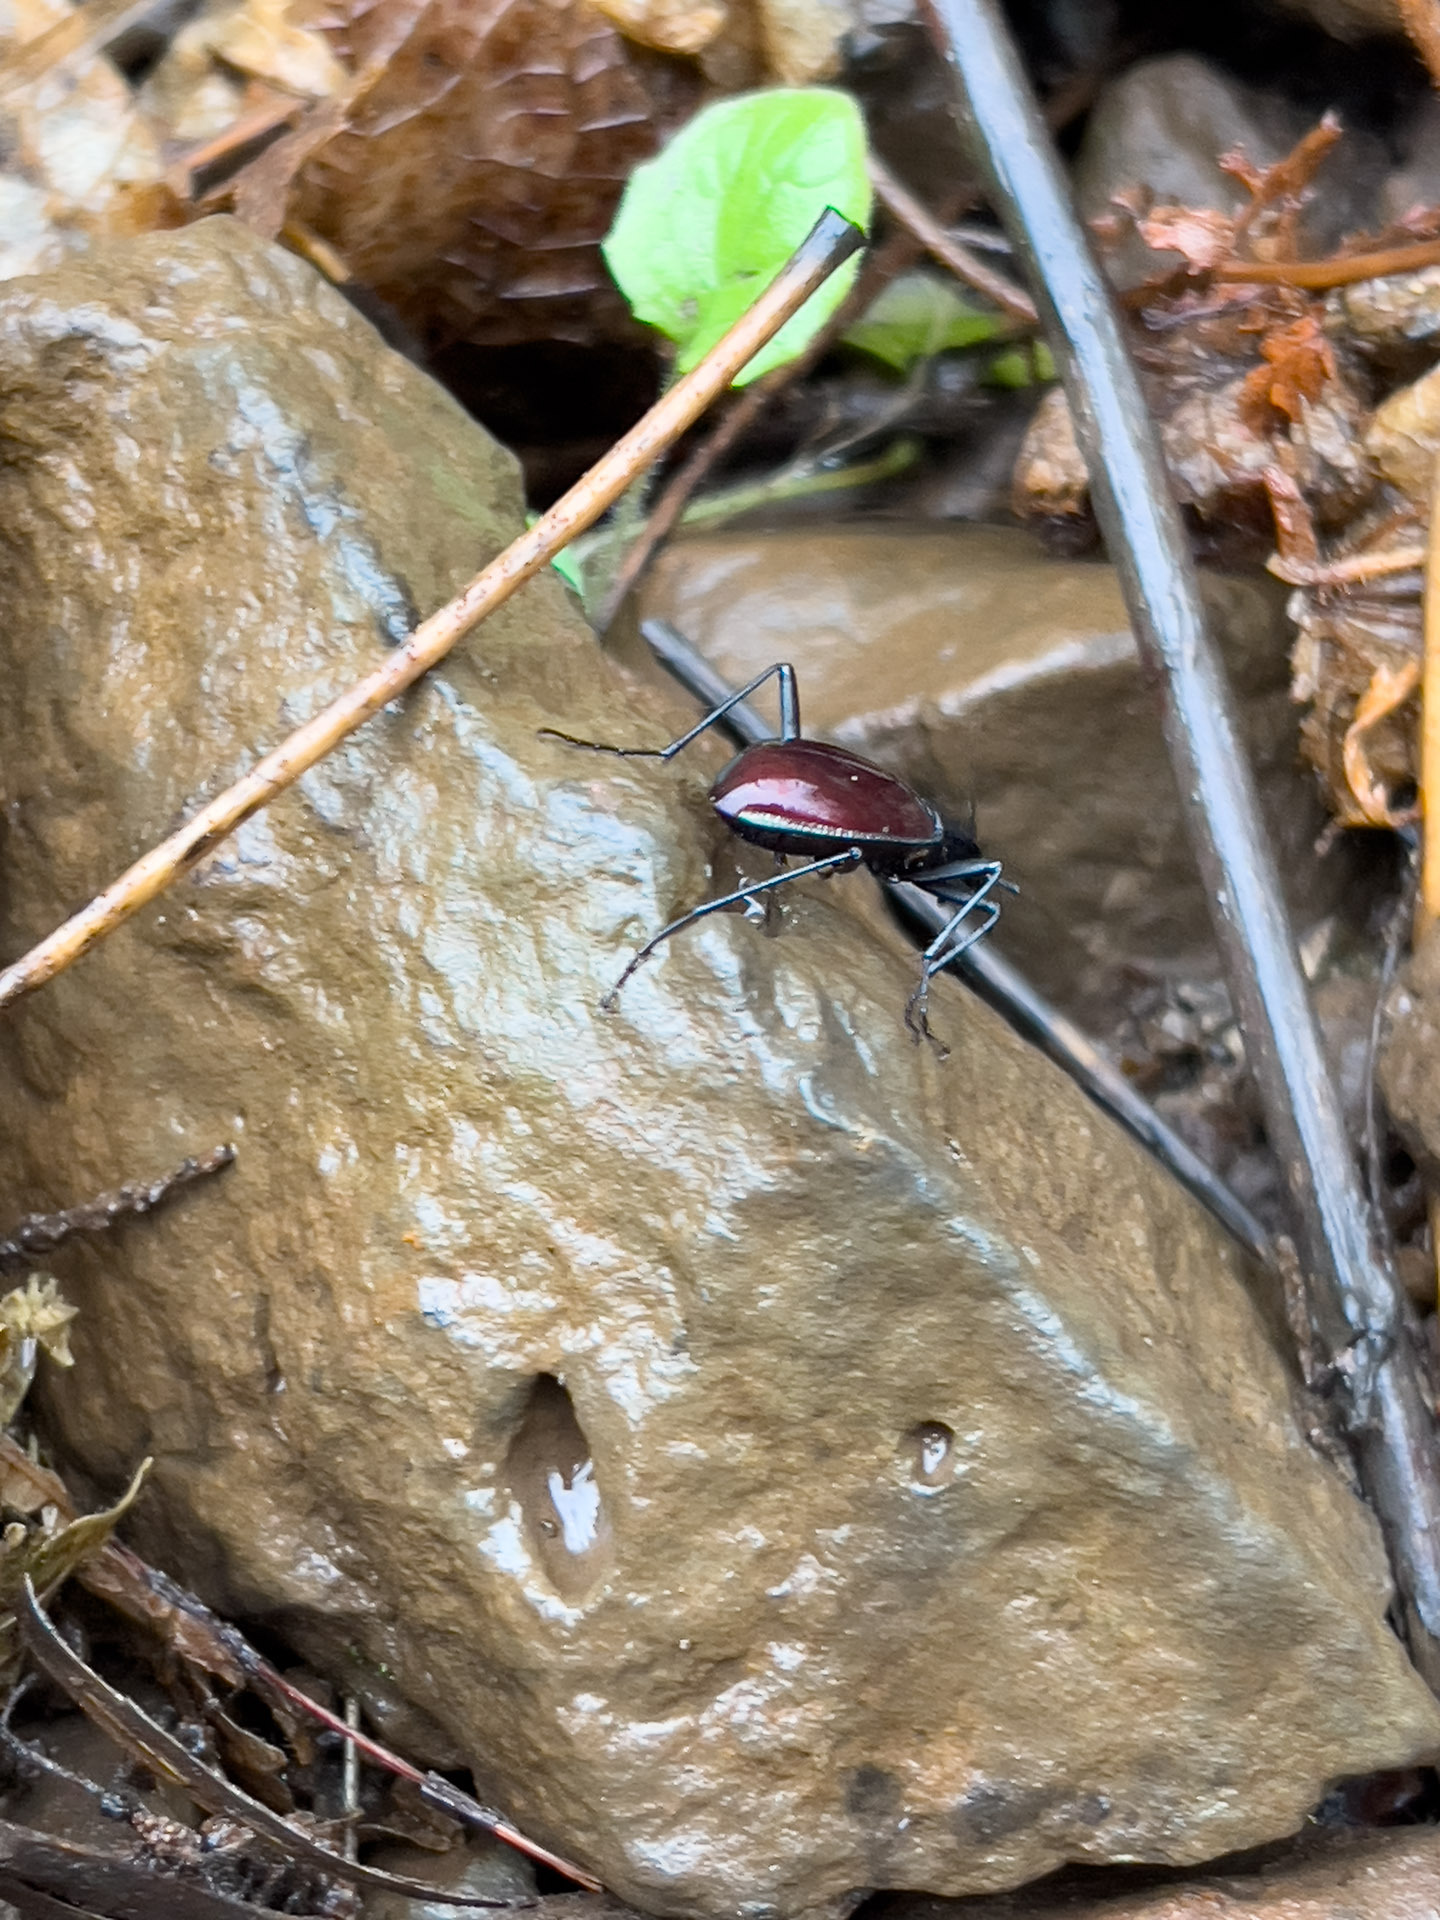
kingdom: Animalia
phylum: Arthropoda
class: Insecta
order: Coleoptera
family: Carabidae
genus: Scaphinotus
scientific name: Scaphinotus angusticollis
